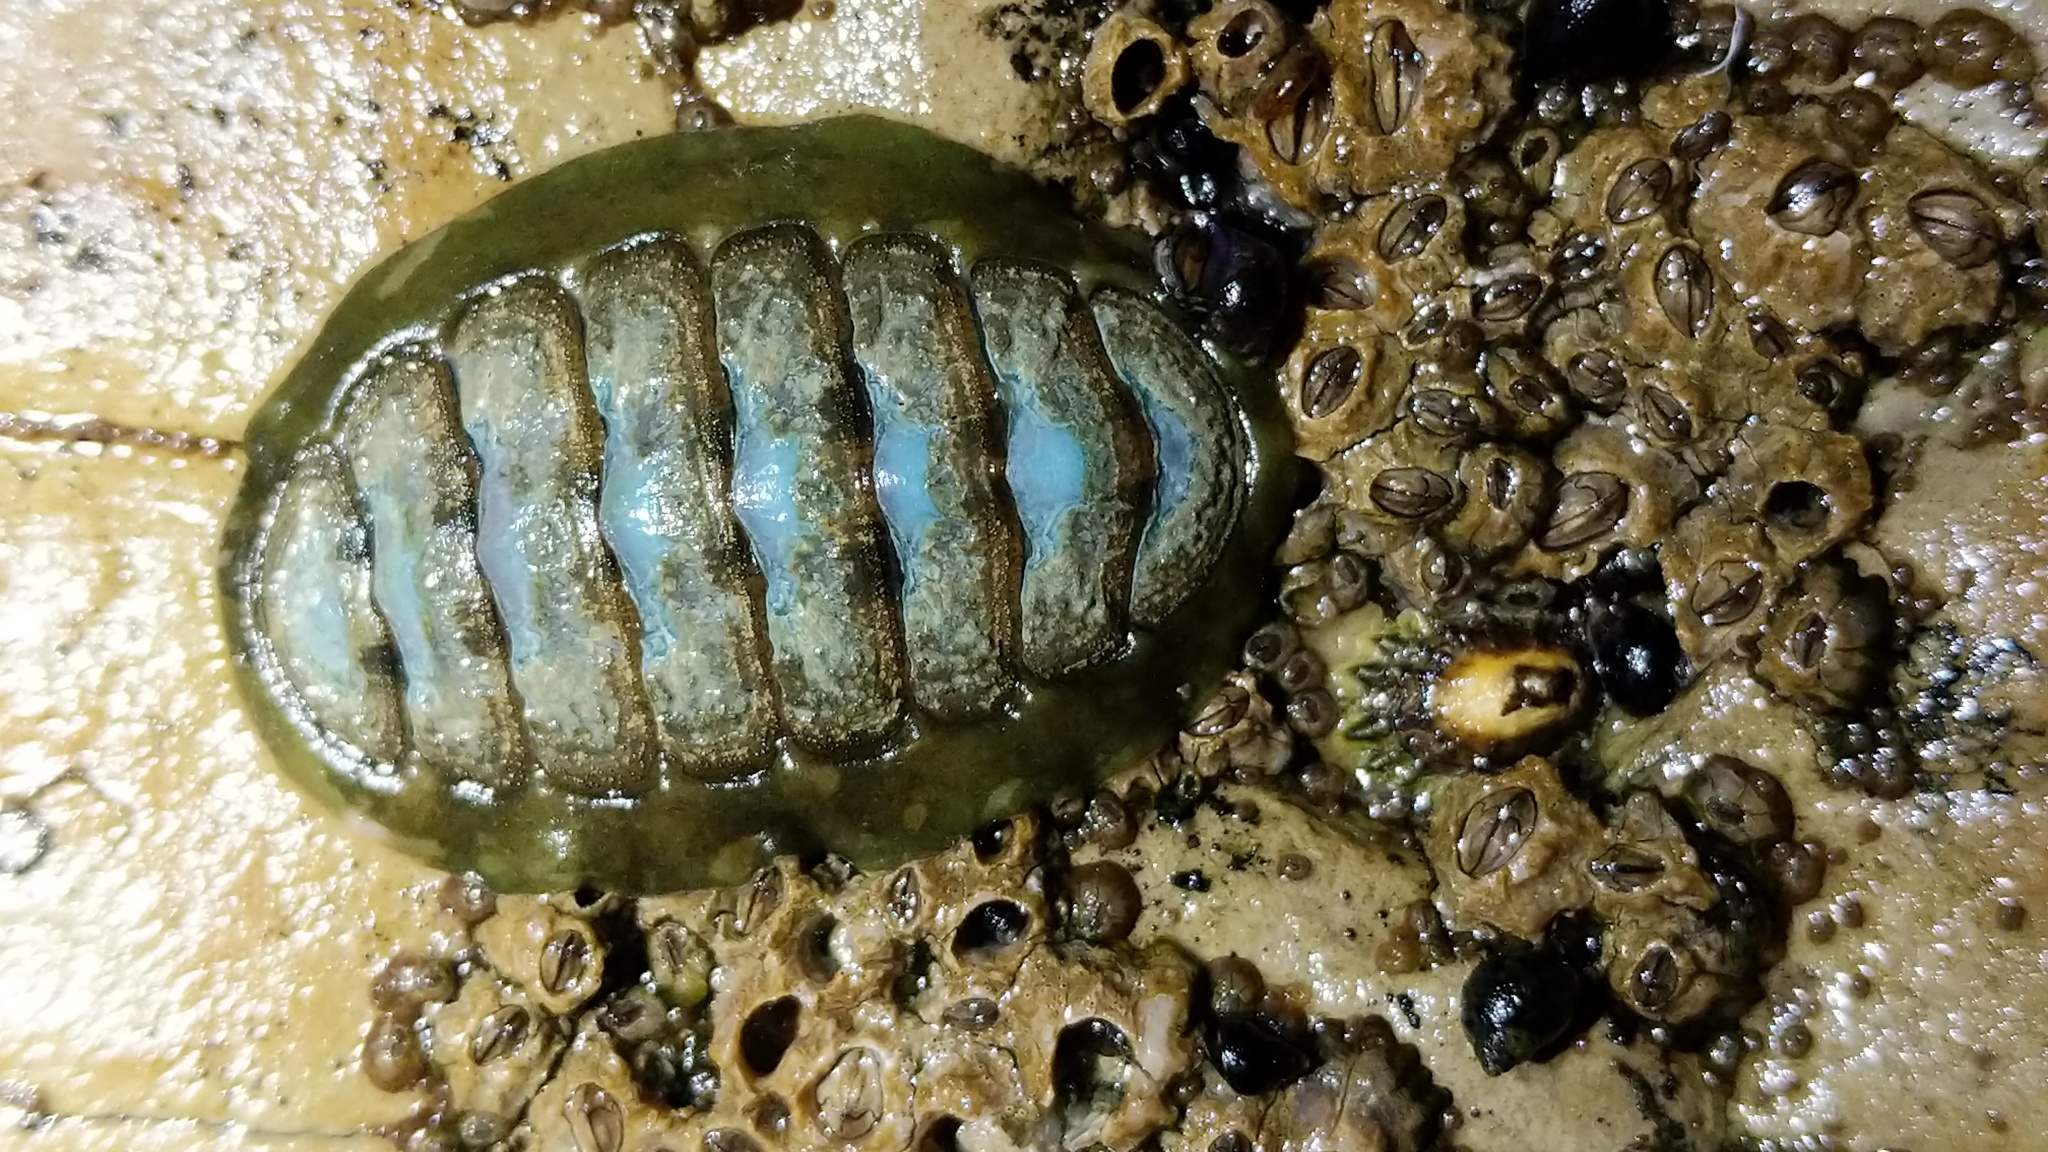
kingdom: Animalia
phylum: Mollusca
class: Polyplacophora
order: Chitonida
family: Tonicellidae
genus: Cyanoplax
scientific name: Cyanoplax hartwegii
